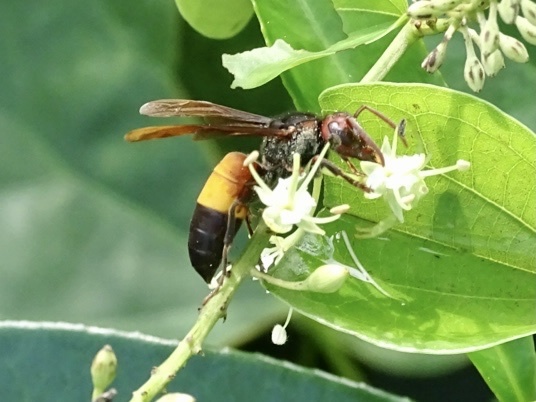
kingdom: Animalia
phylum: Arthropoda
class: Insecta
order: Hymenoptera
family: Vespidae
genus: Vespa
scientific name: Vespa affinis
